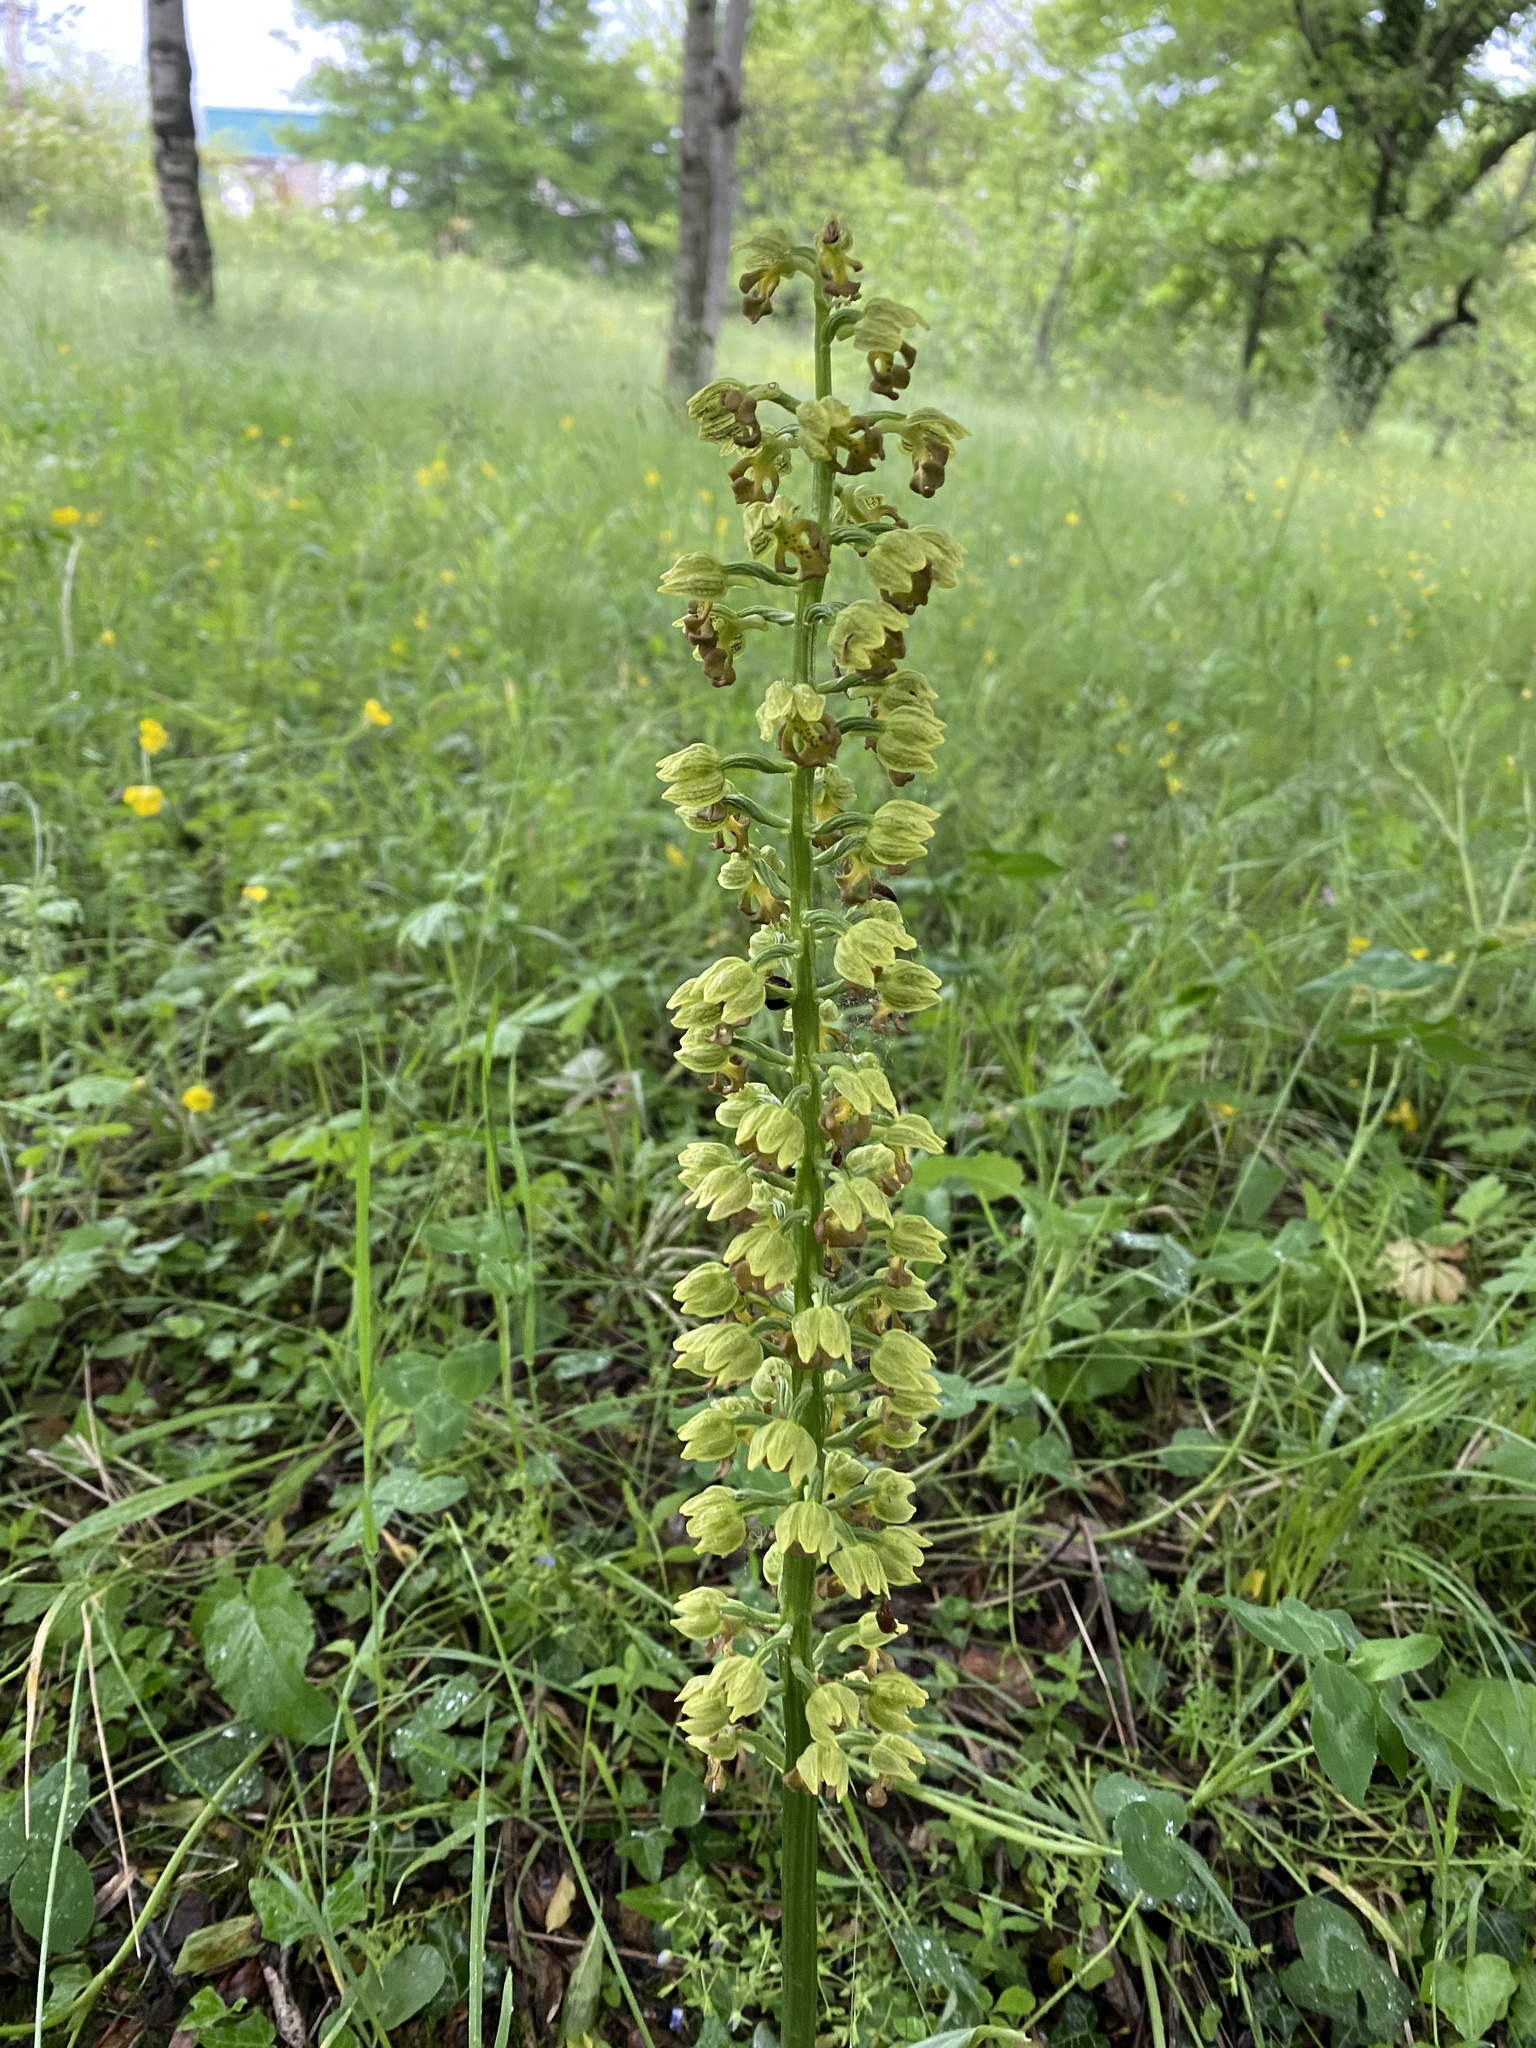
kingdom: Plantae
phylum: Tracheophyta
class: Liliopsida
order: Asparagales
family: Orchidaceae
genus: Orchis
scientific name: Orchis punctulata
